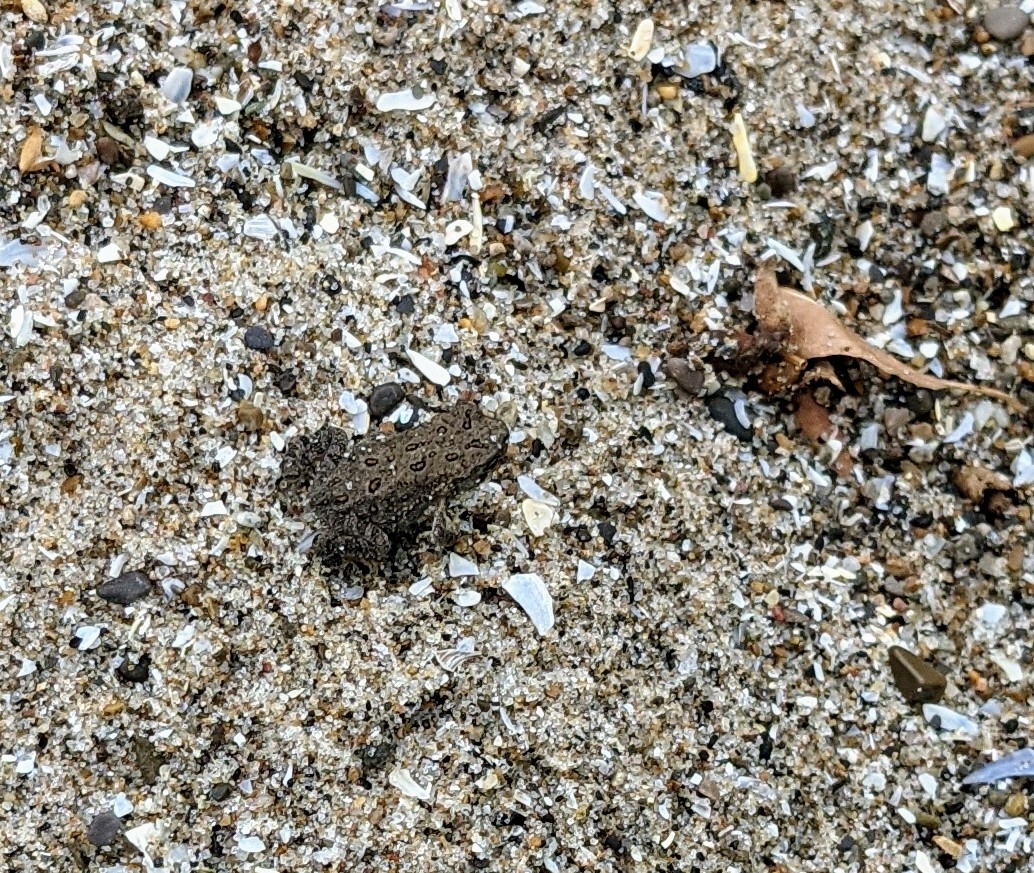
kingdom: Animalia
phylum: Chordata
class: Amphibia
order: Anura
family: Bufonidae
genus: Anaxyrus
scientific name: Anaxyrus americanus
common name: American toad
